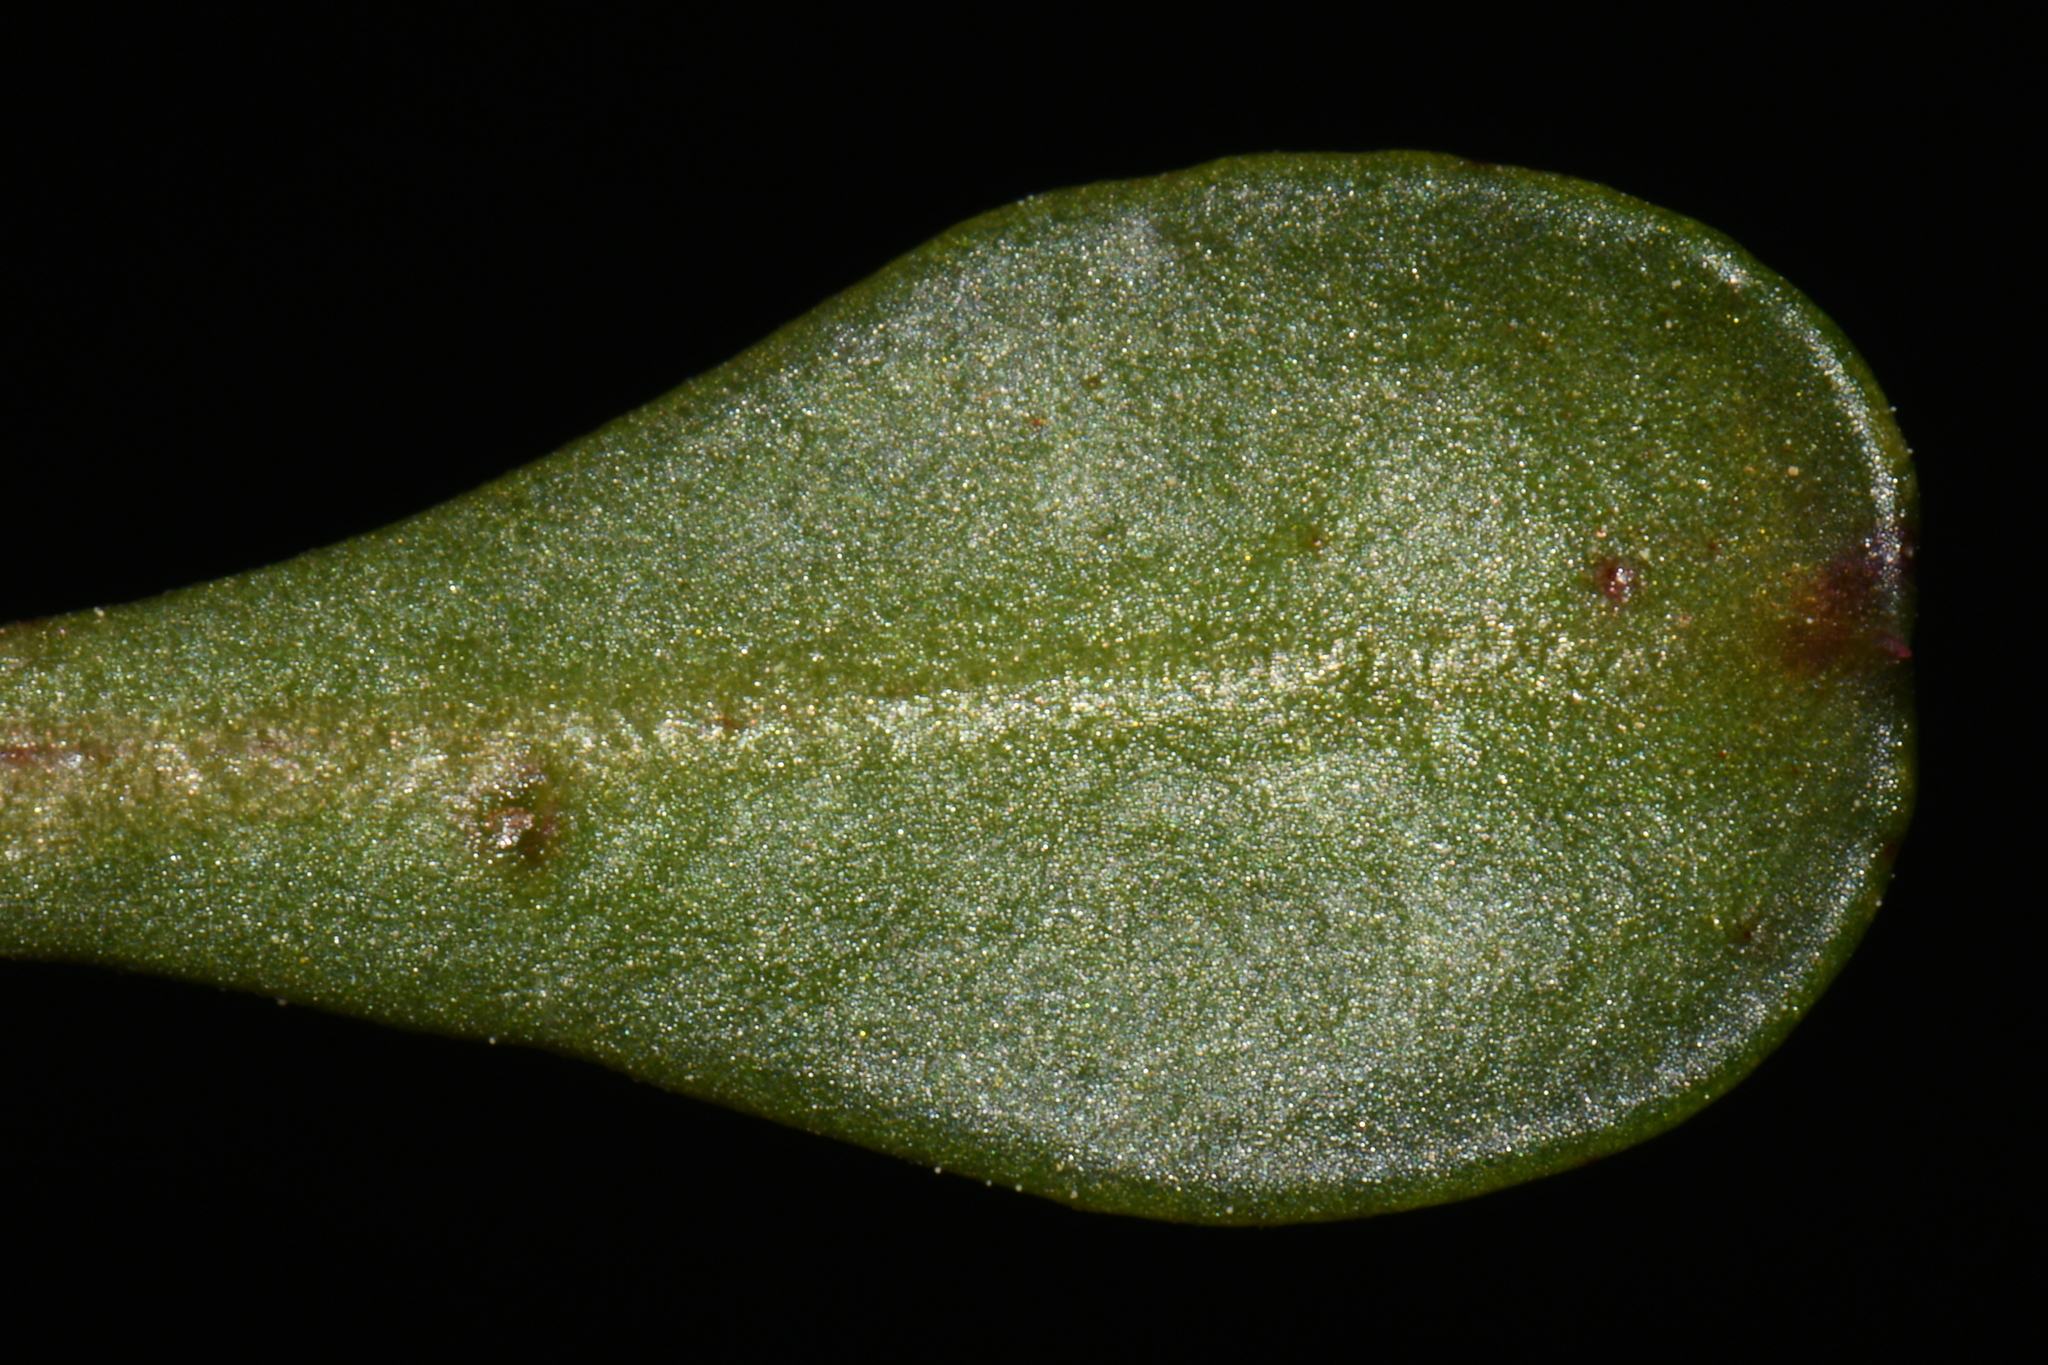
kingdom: Plantae
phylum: Tracheophyta
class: Magnoliopsida
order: Caryophyllales
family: Montiaceae
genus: Calyptridium
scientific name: Calyptridium umbellatum
